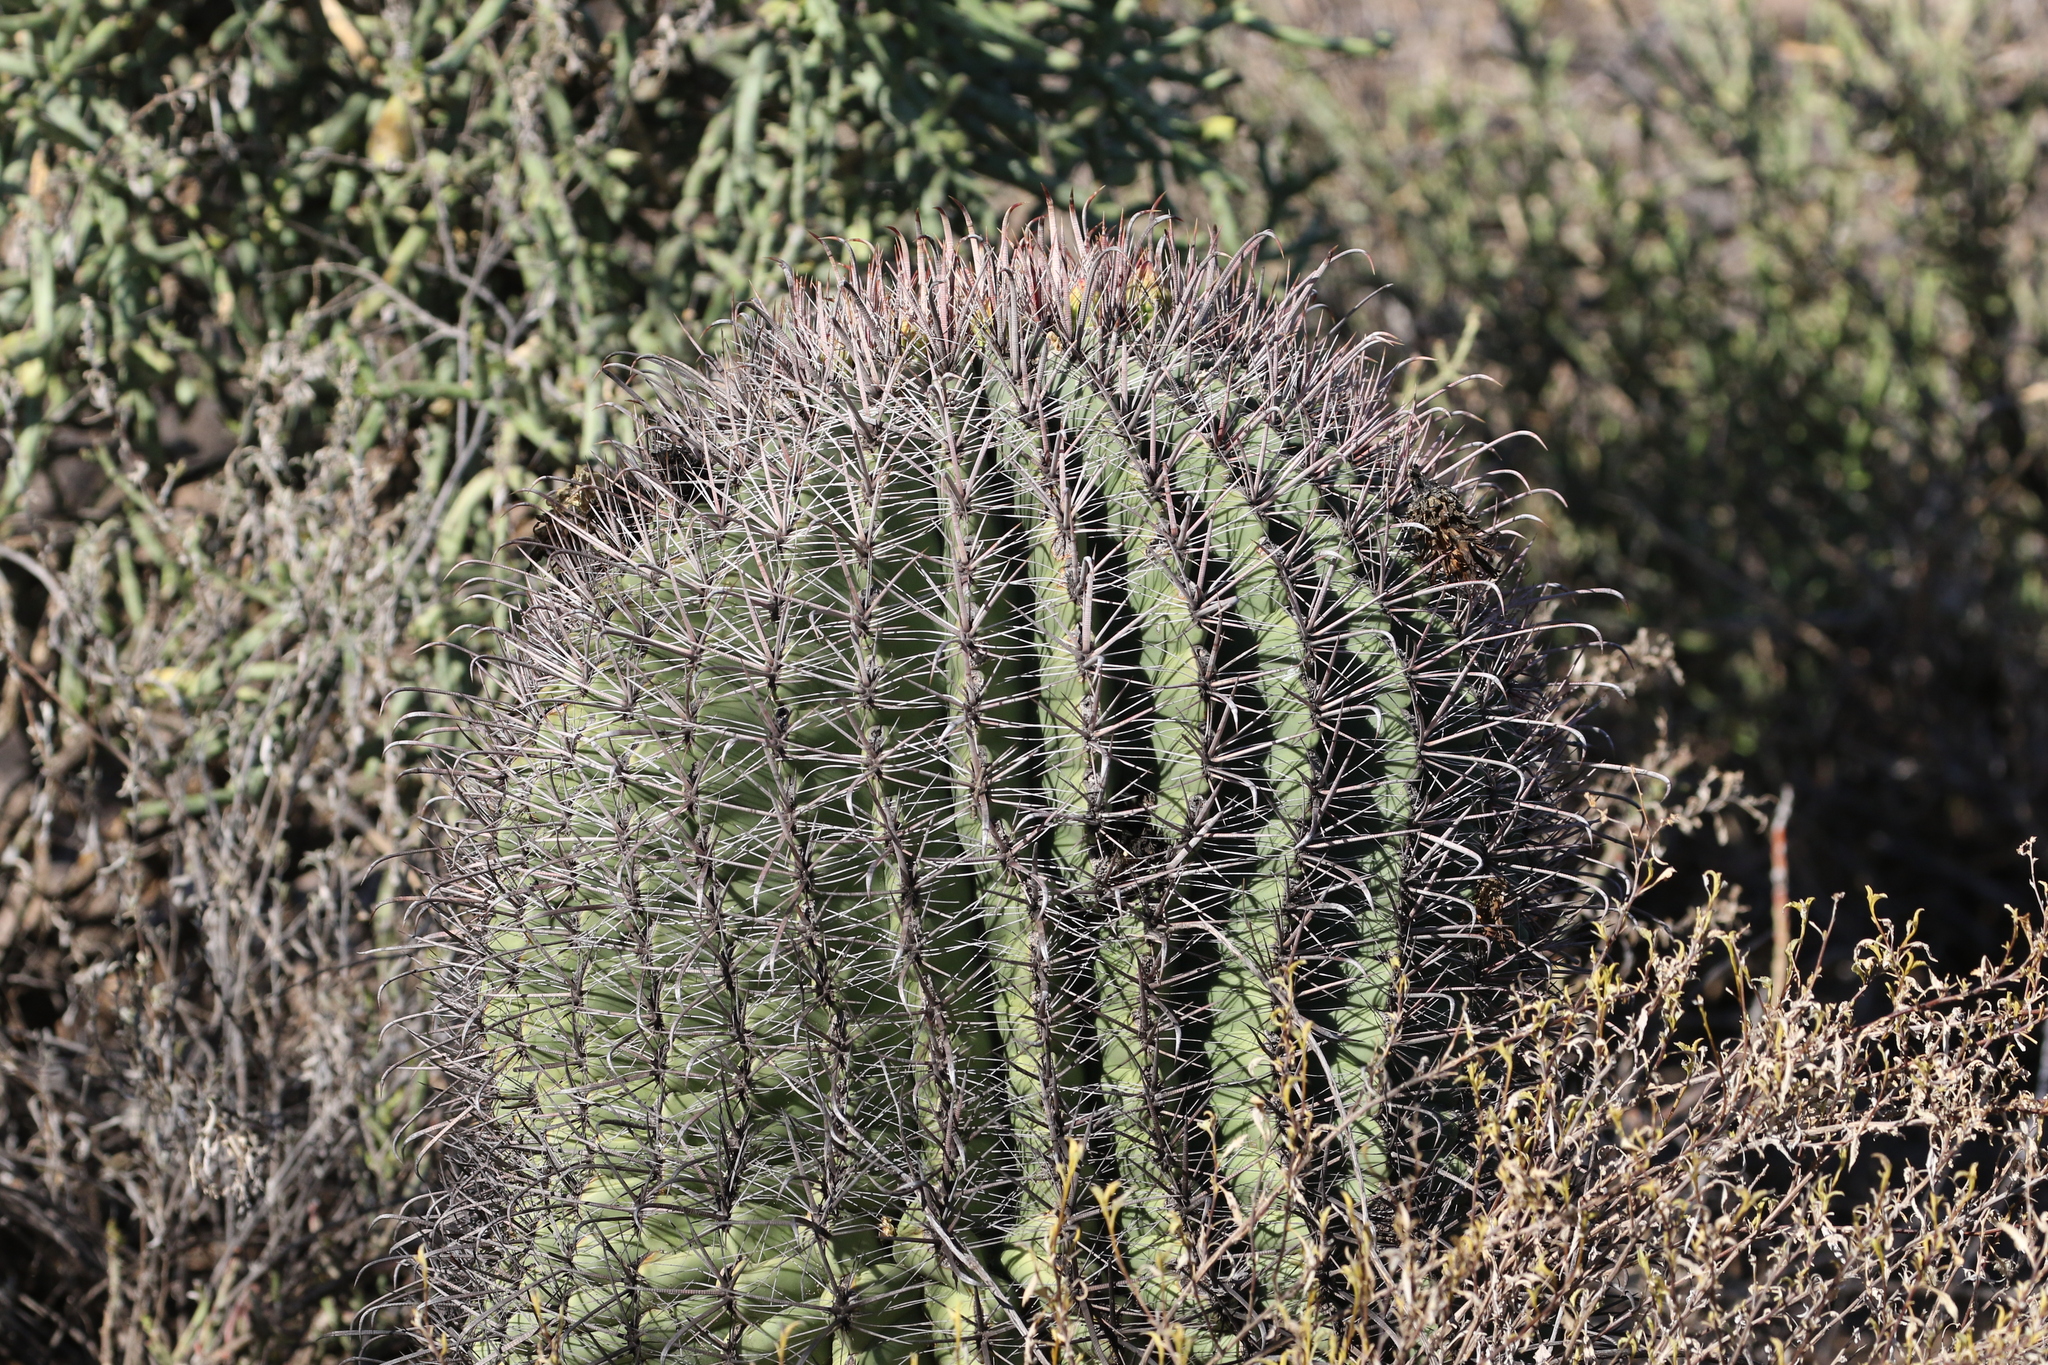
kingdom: Plantae
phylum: Tracheophyta
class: Magnoliopsida
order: Caryophyllales
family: Cactaceae
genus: Ferocactus
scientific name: Ferocactus wislizeni
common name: Candy barrel cactus
